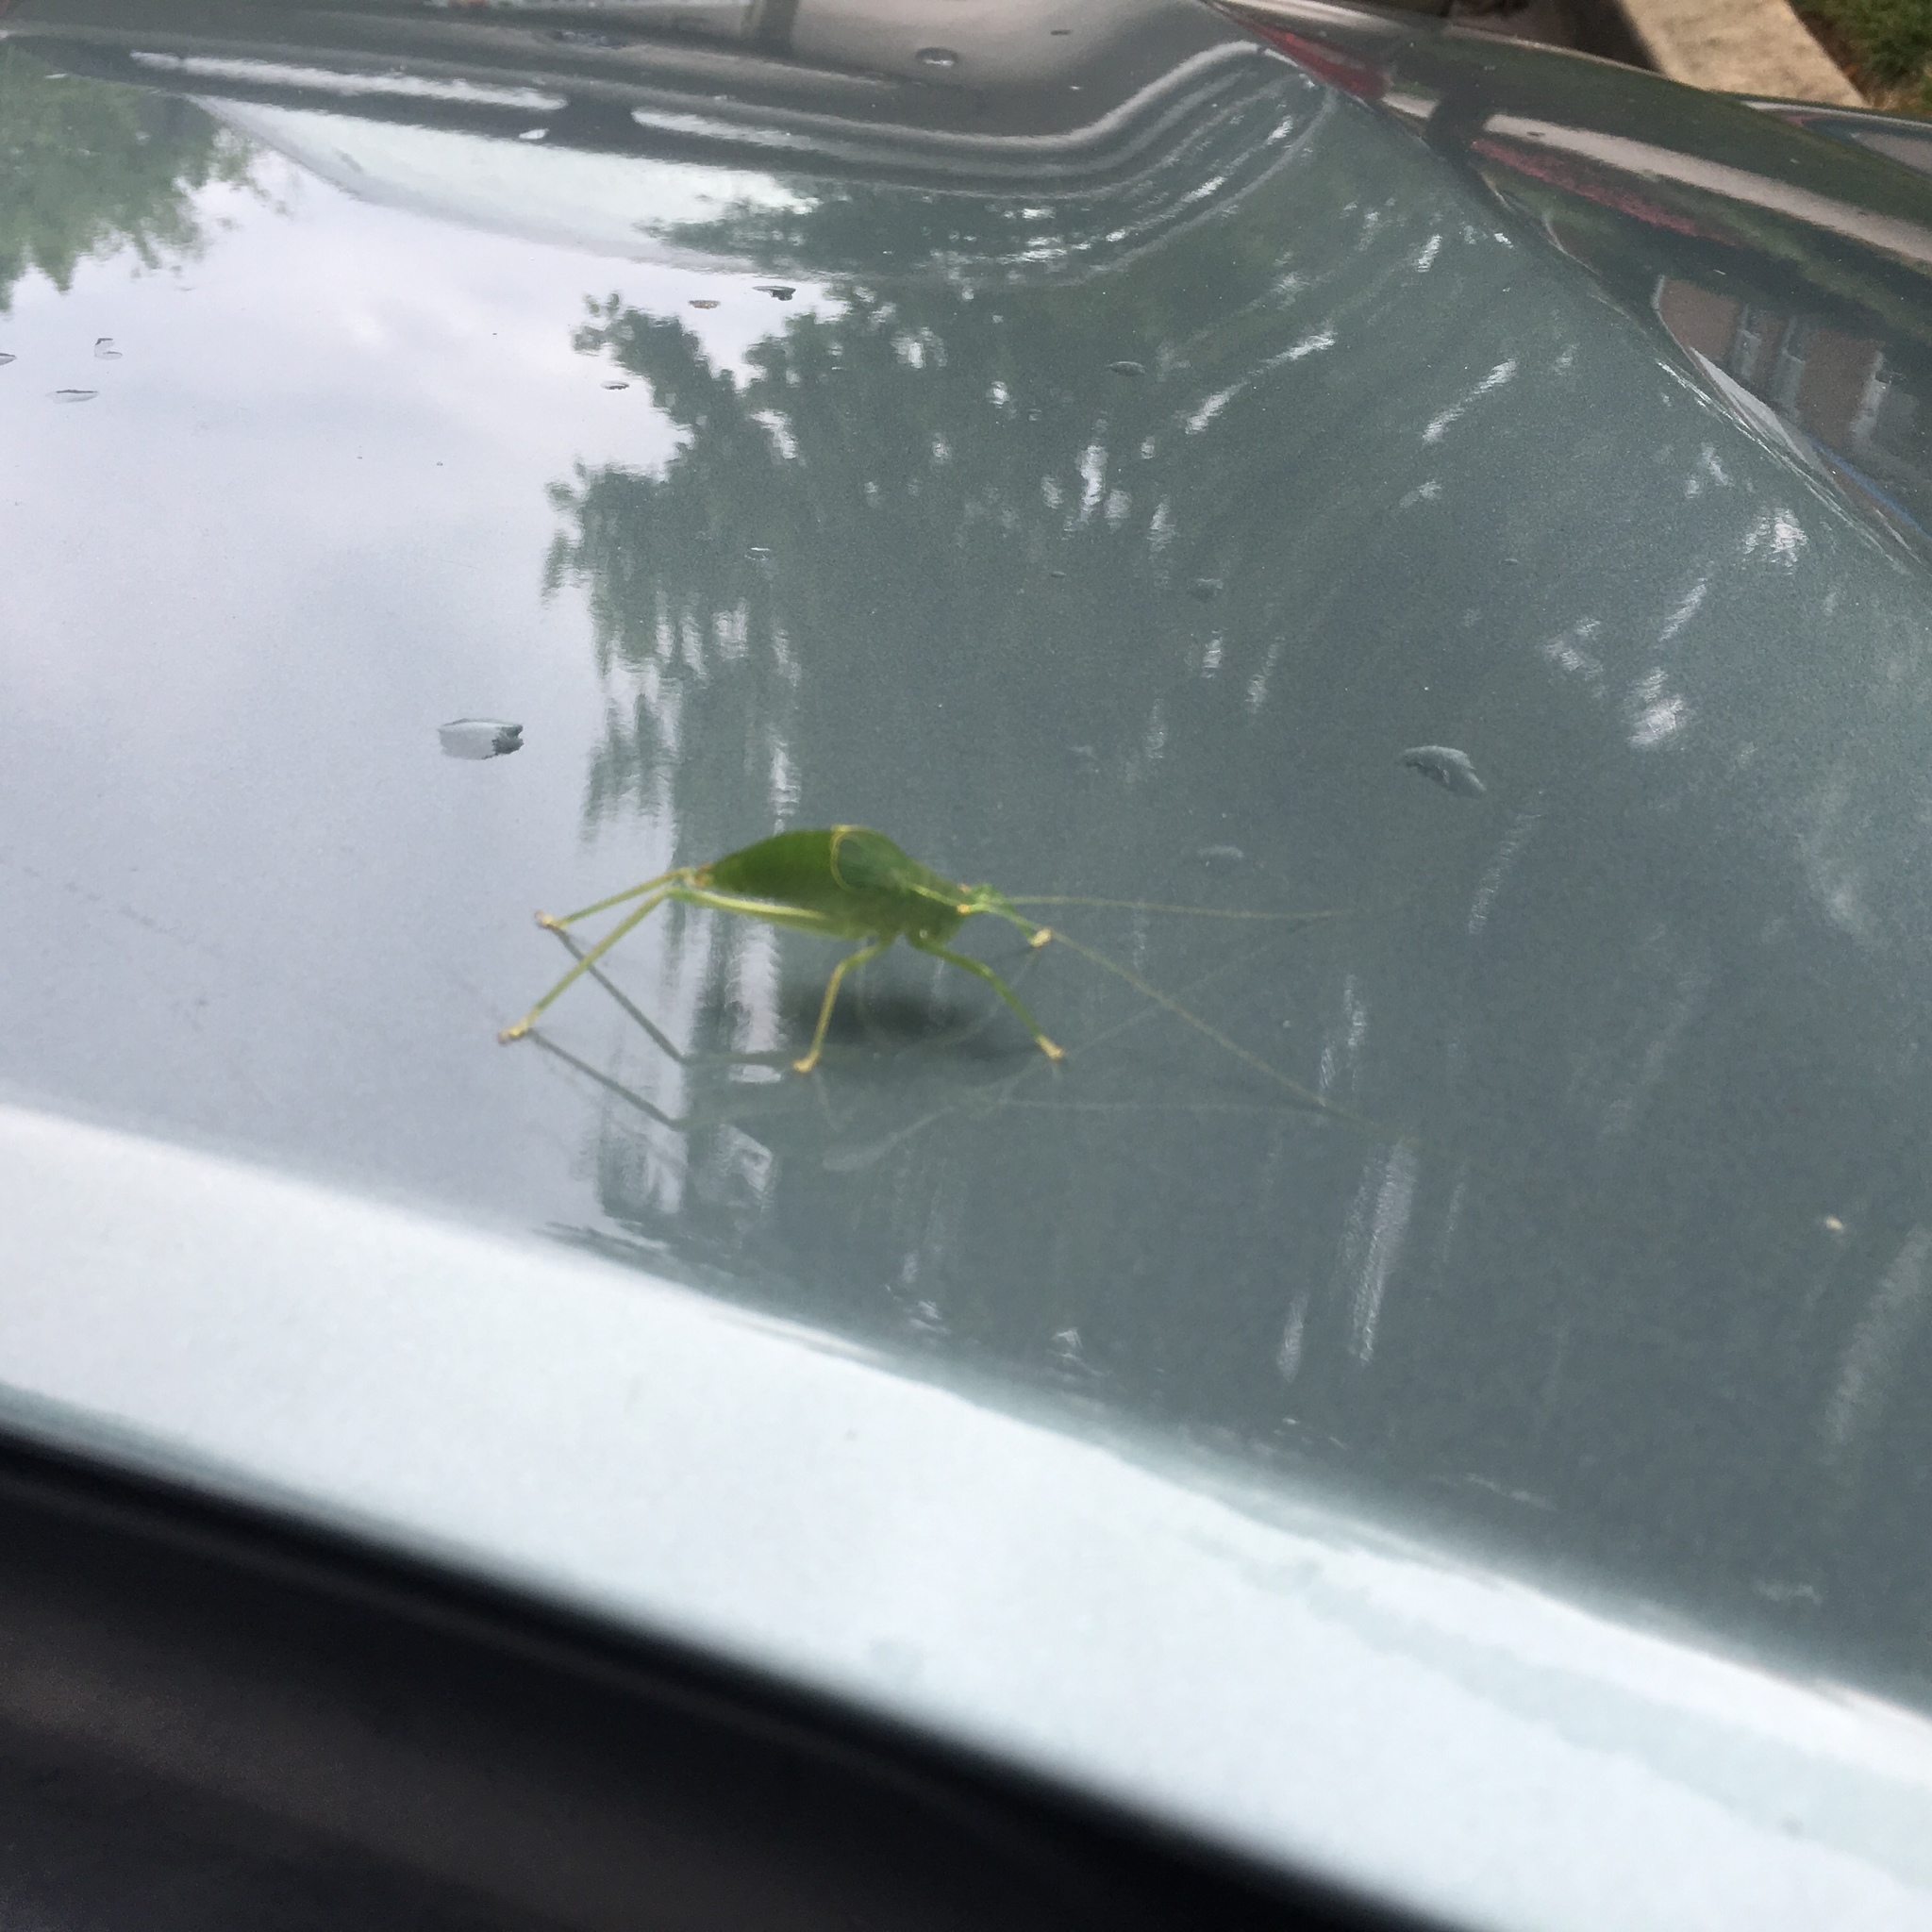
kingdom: Animalia
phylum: Arthropoda
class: Insecta
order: Orthoptera
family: Tettigoniidae
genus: Pterophylla
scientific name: Pterophylla camellifolia
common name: Common true katydid
